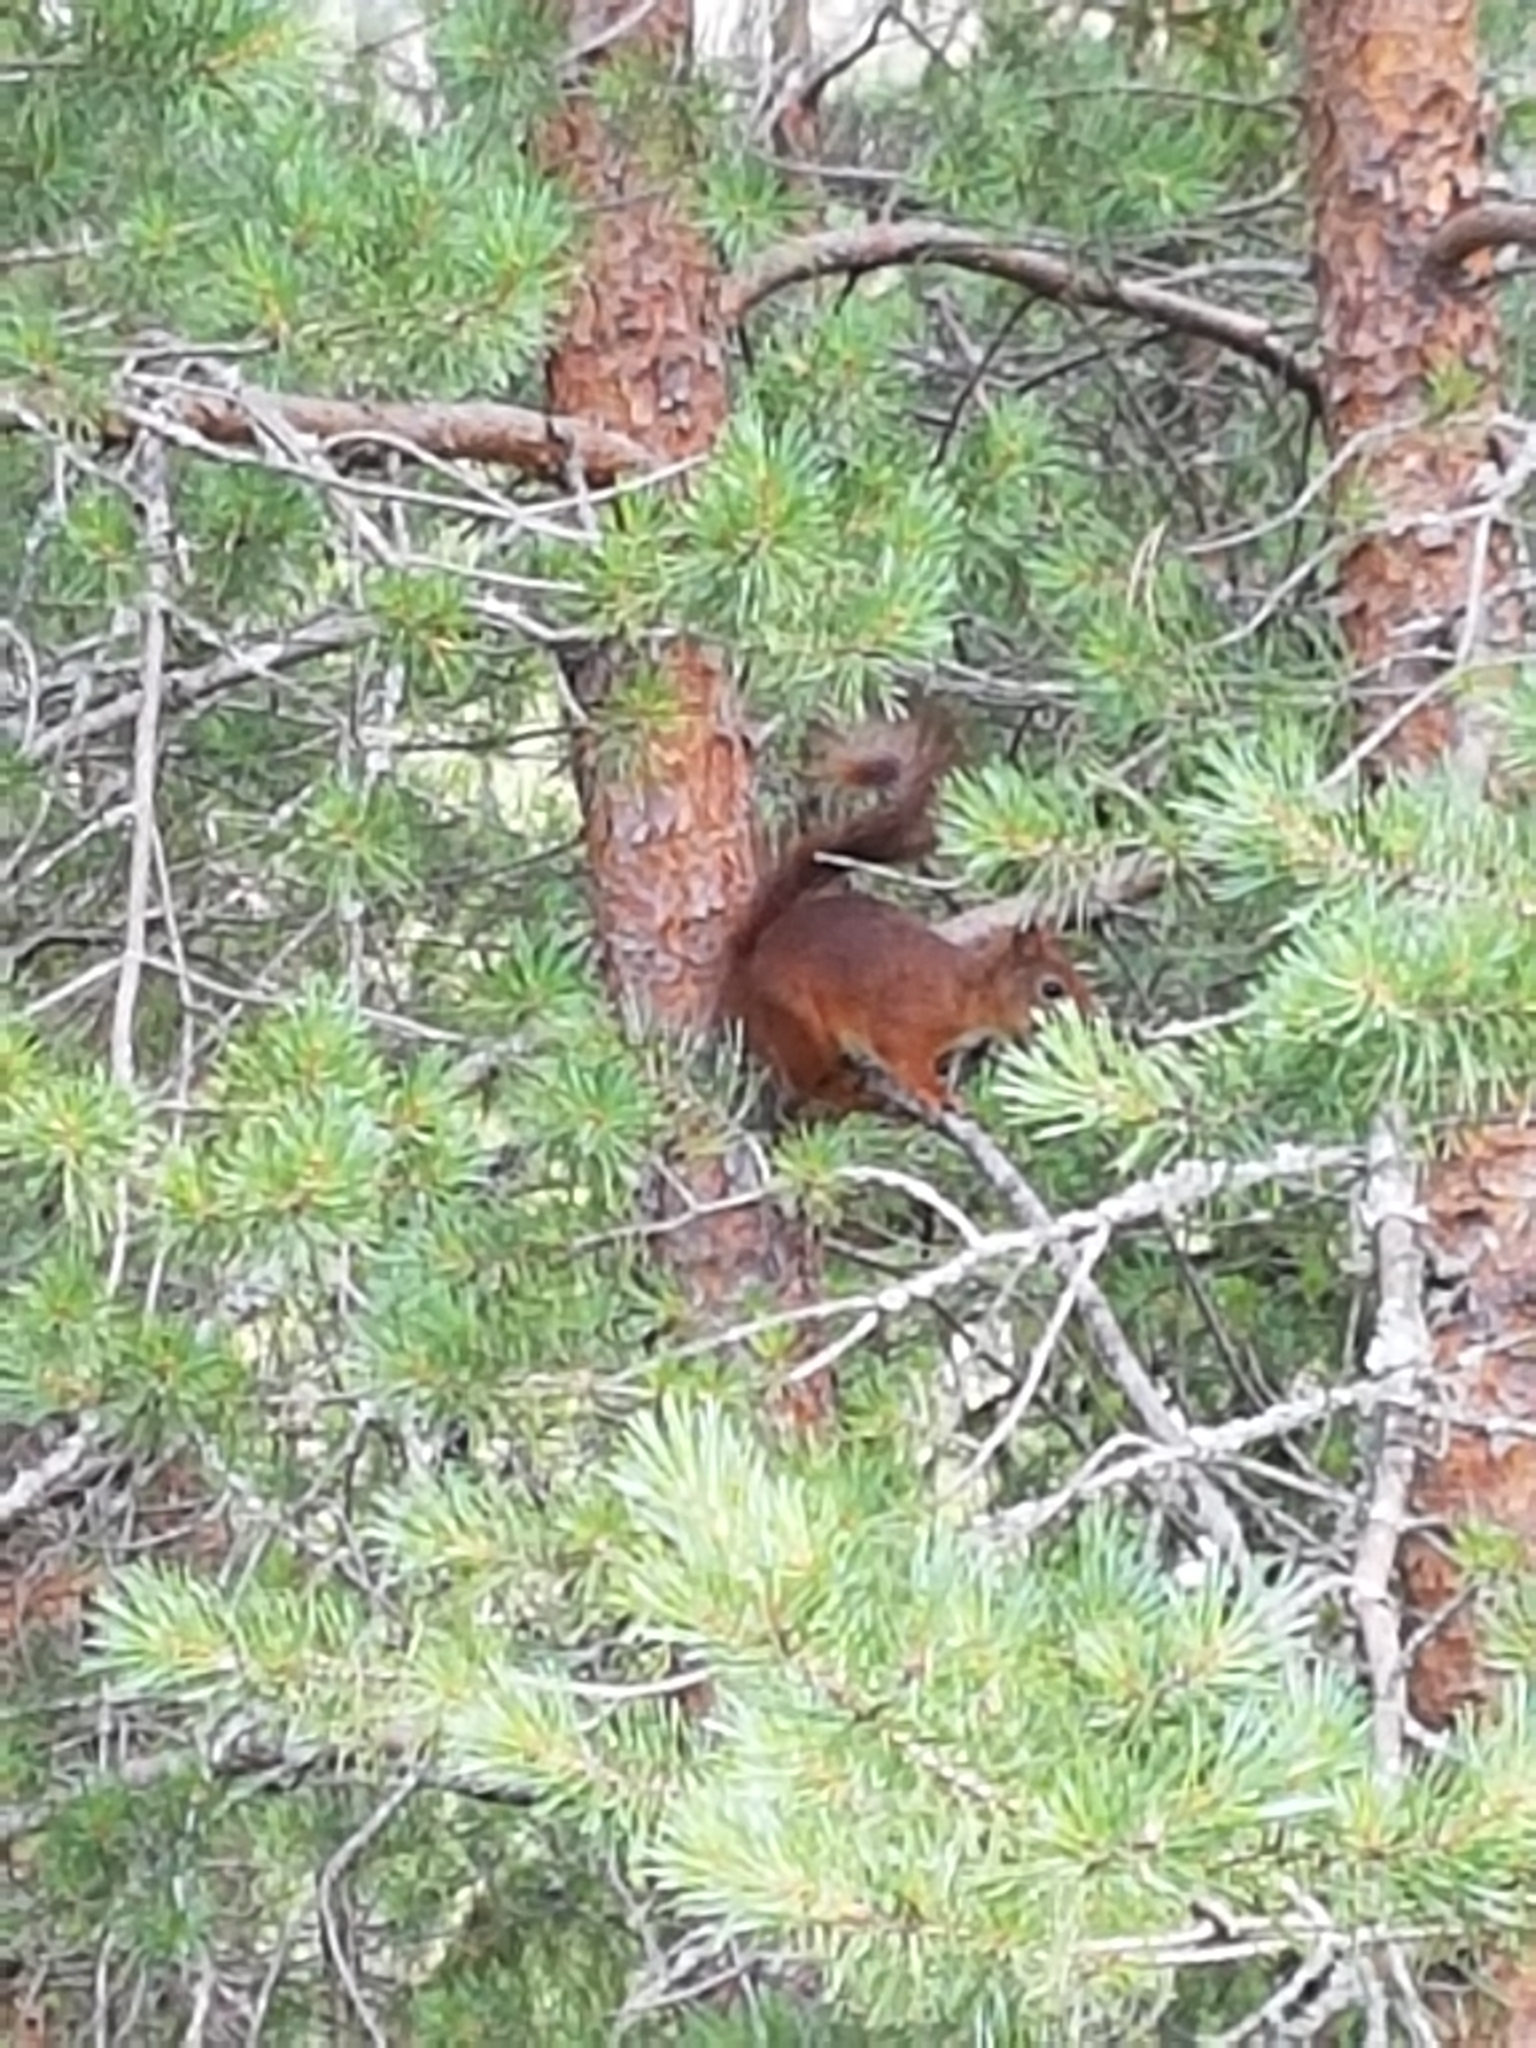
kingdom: Animalia
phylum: Chordata
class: Mammalia
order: Rodentia
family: Sciuridae
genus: Sciurus
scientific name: Sciurus vulgaris
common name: Eurasian red squirrel
